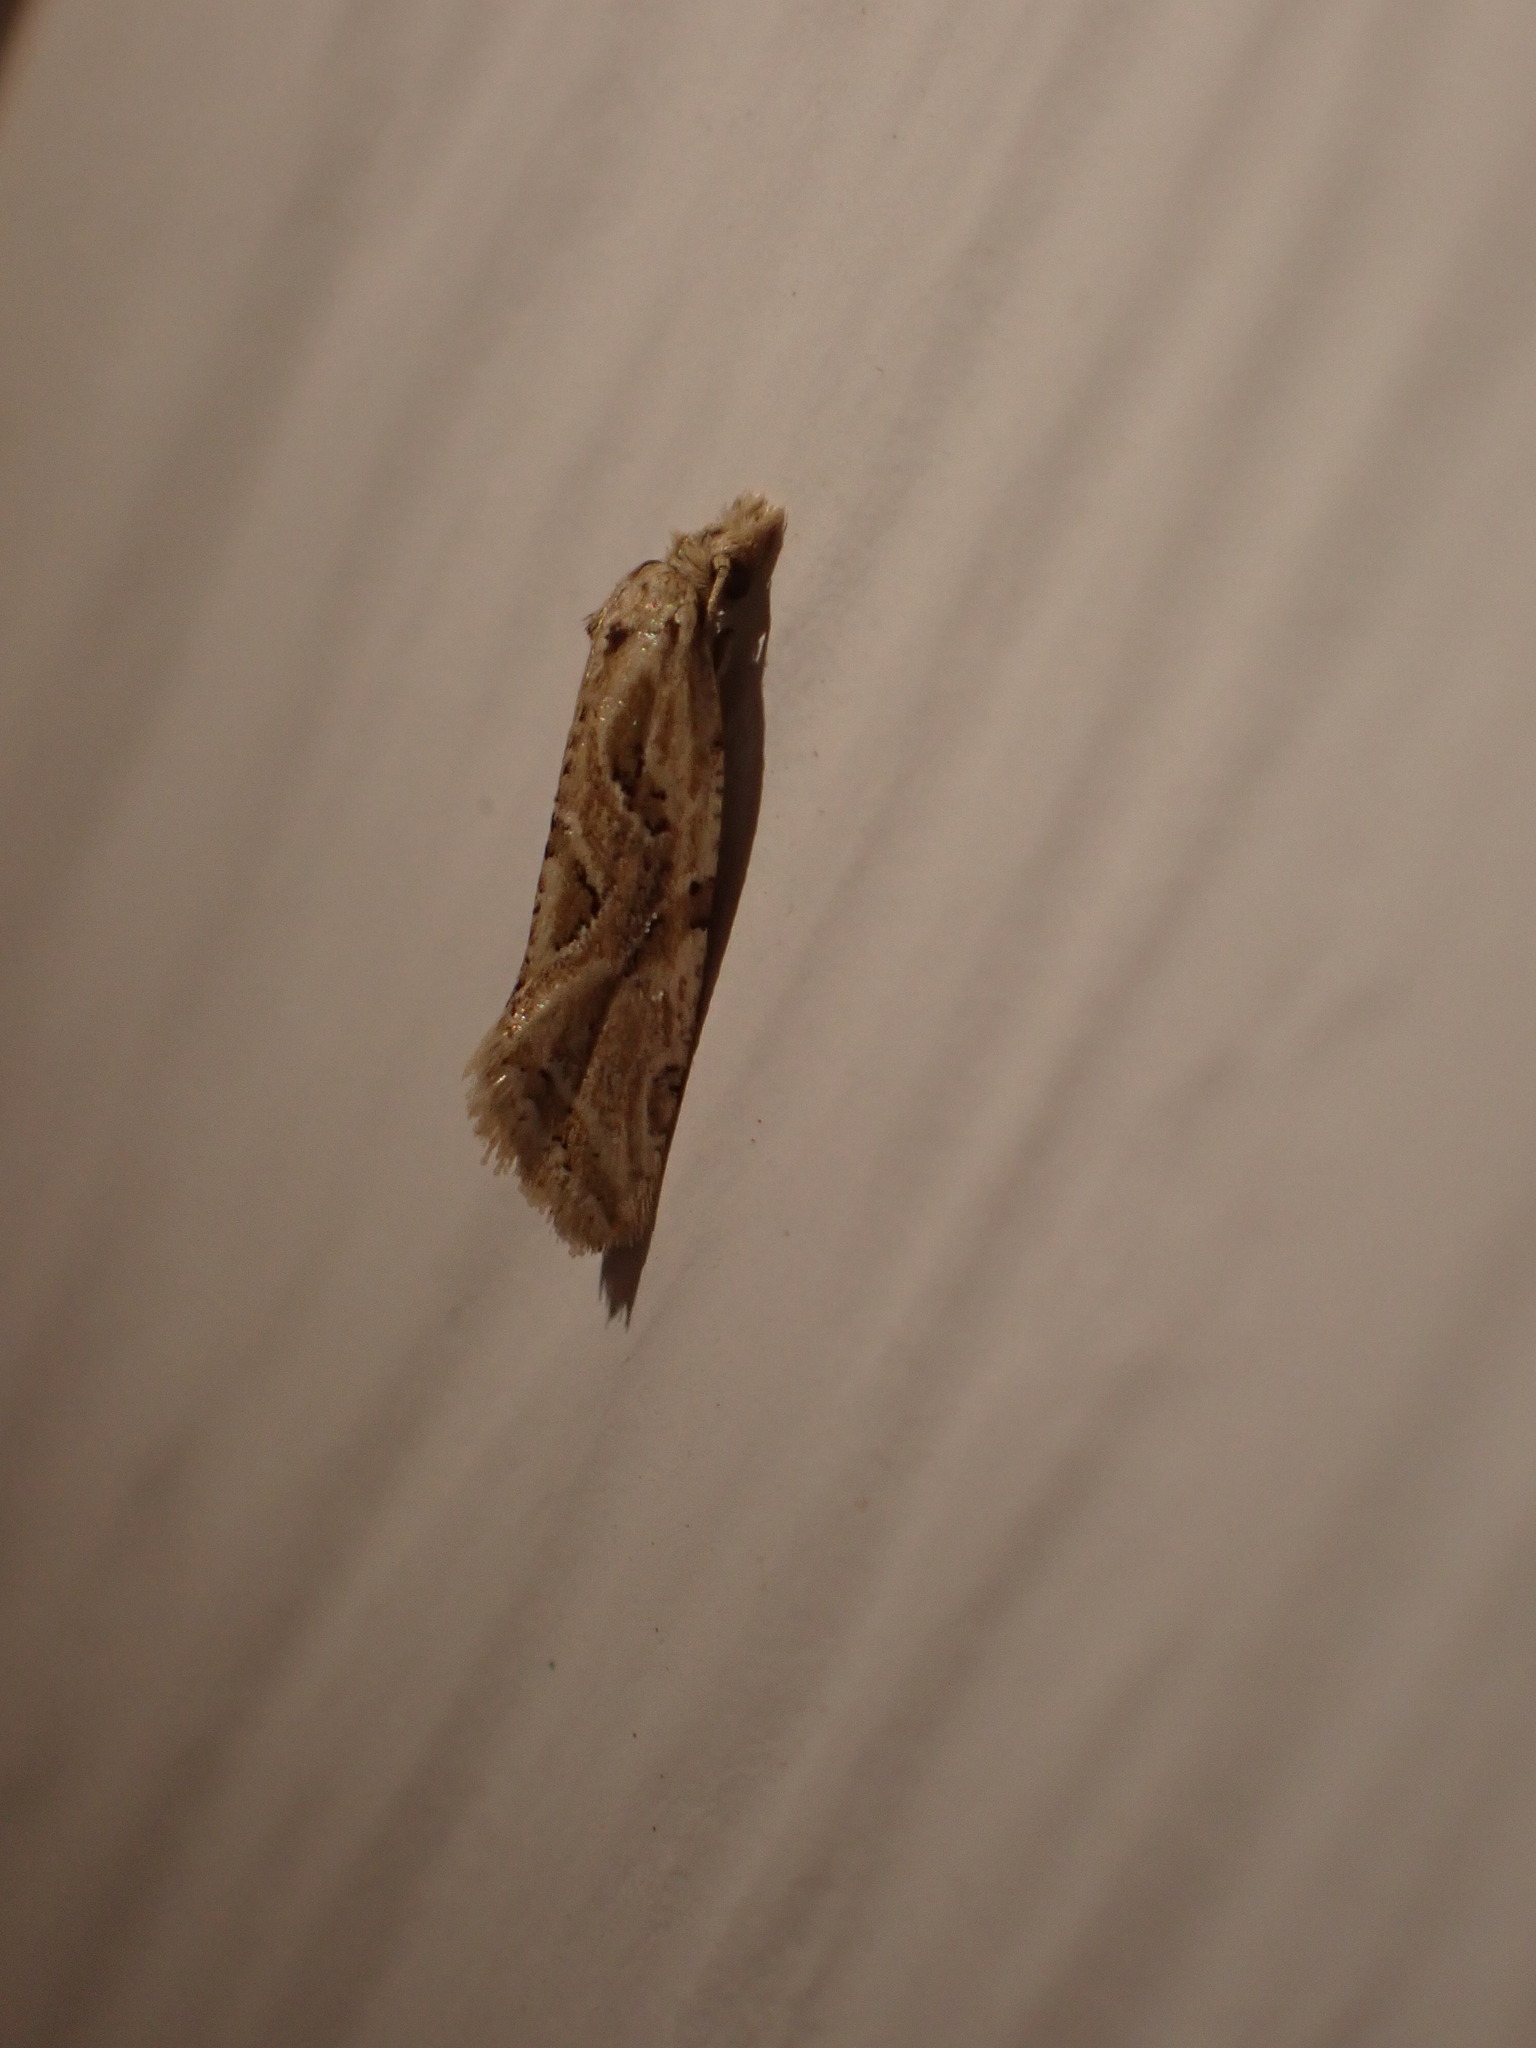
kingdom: Animalia
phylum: Arthropoda
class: Insecta
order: Lepidoptera
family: Tortricidae
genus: Aethes
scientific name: Aethes heleniana
